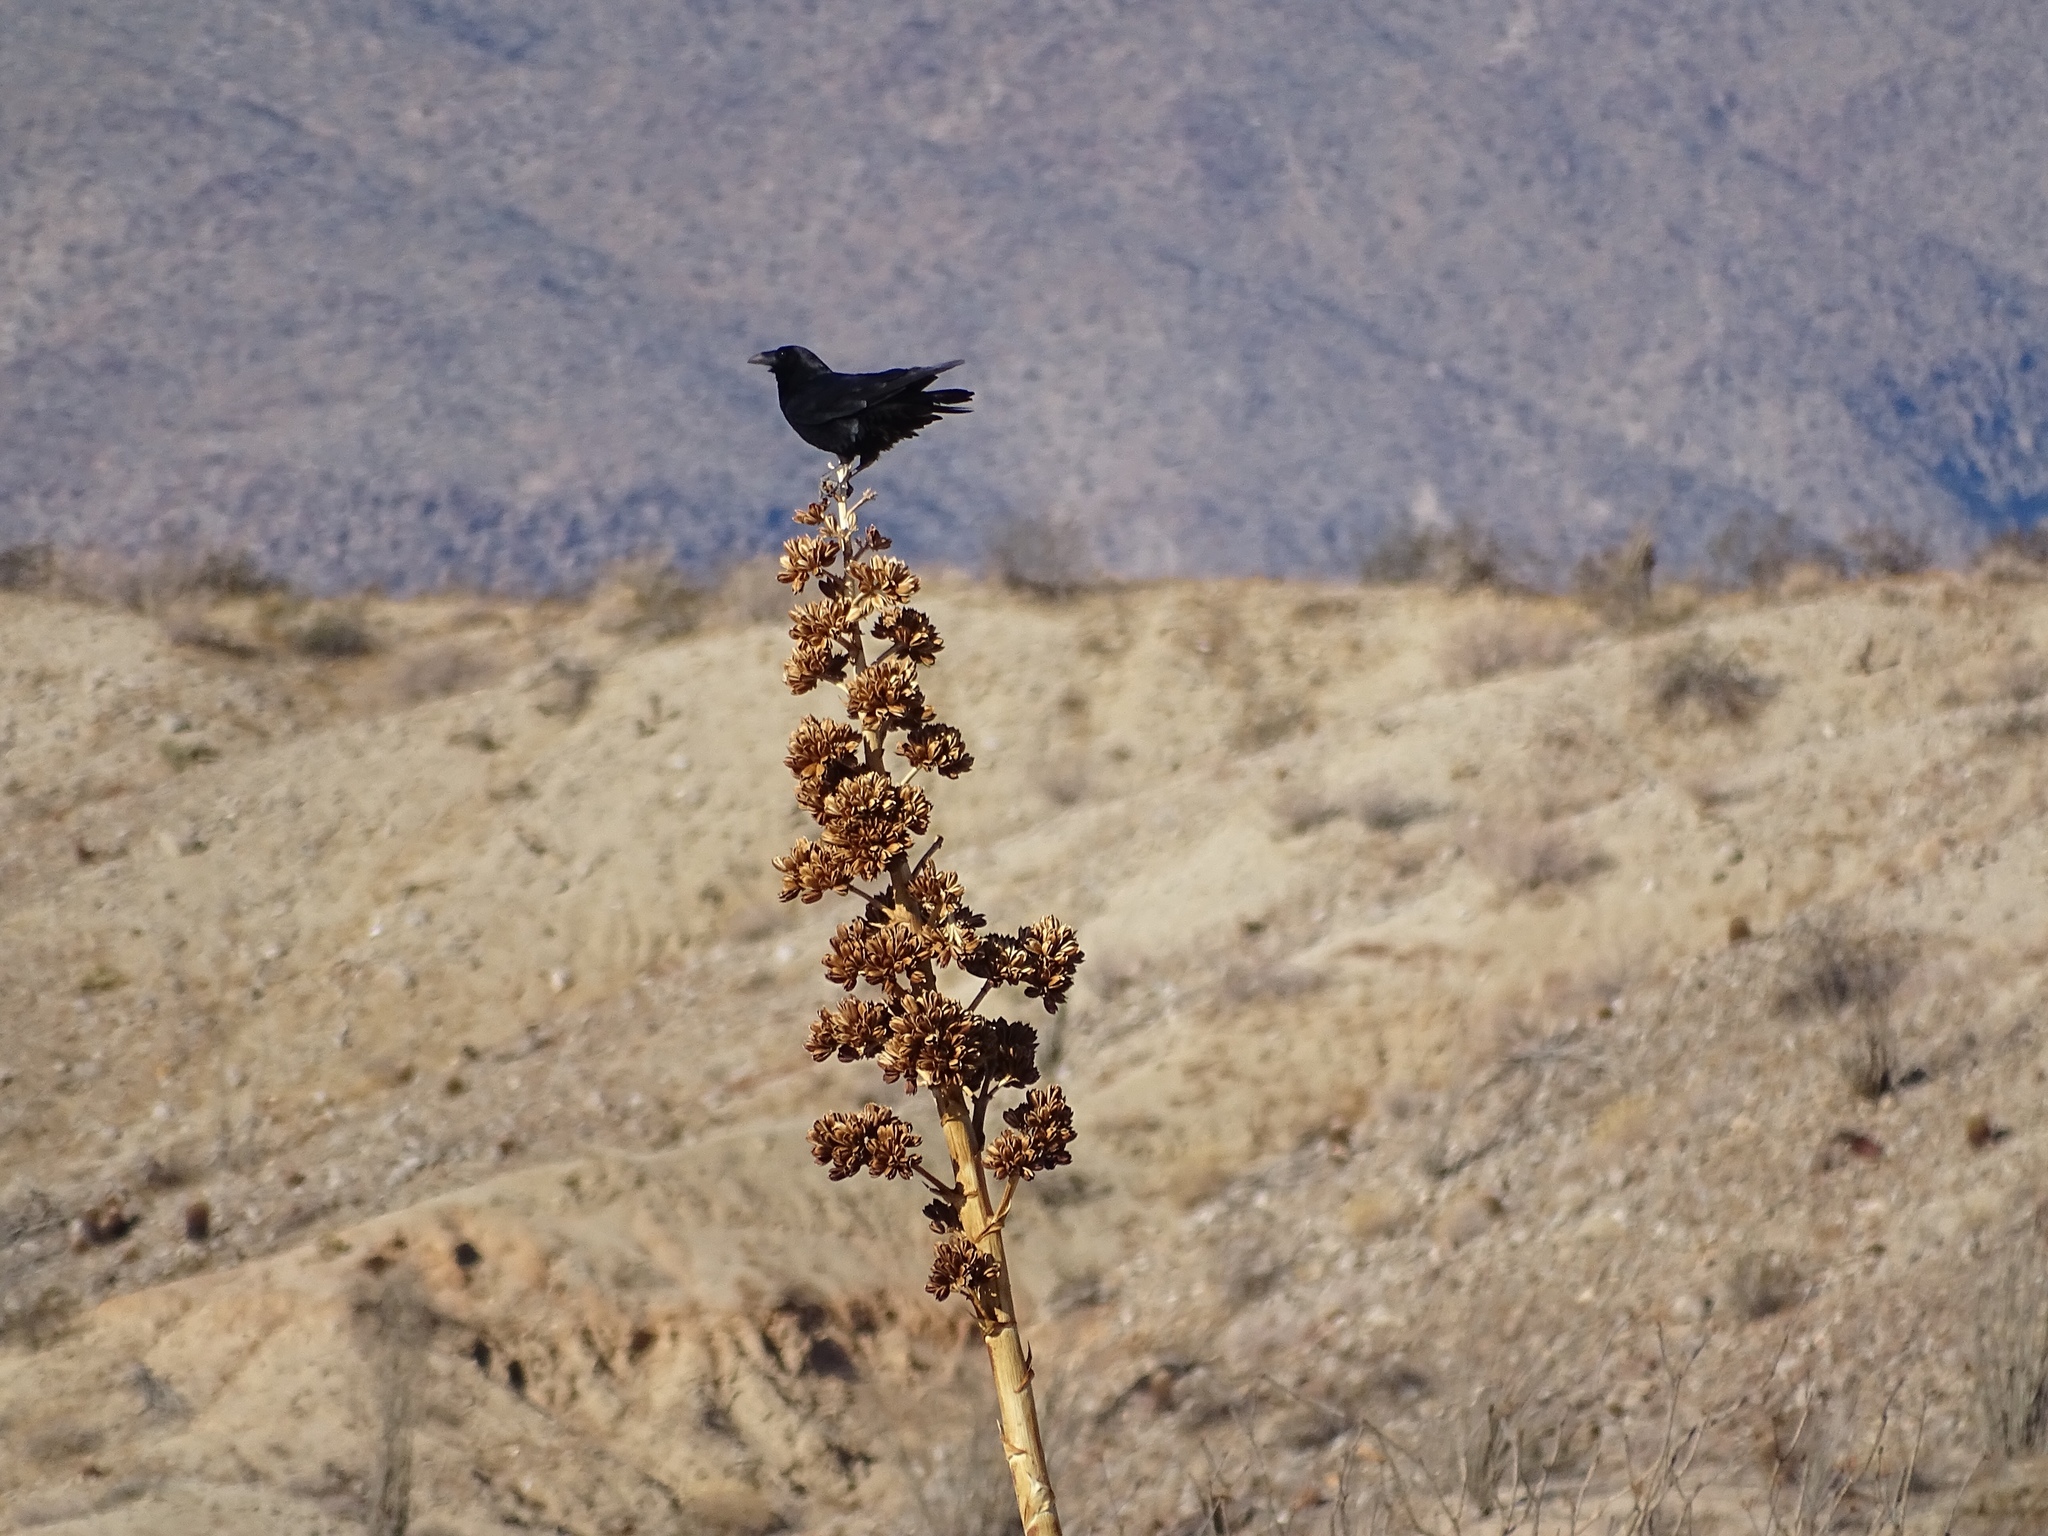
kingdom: Animalia
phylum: Chordata
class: Aves
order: Passeriformes
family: Corvidae
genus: Corvus
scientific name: Corvus corax
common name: Common raven
